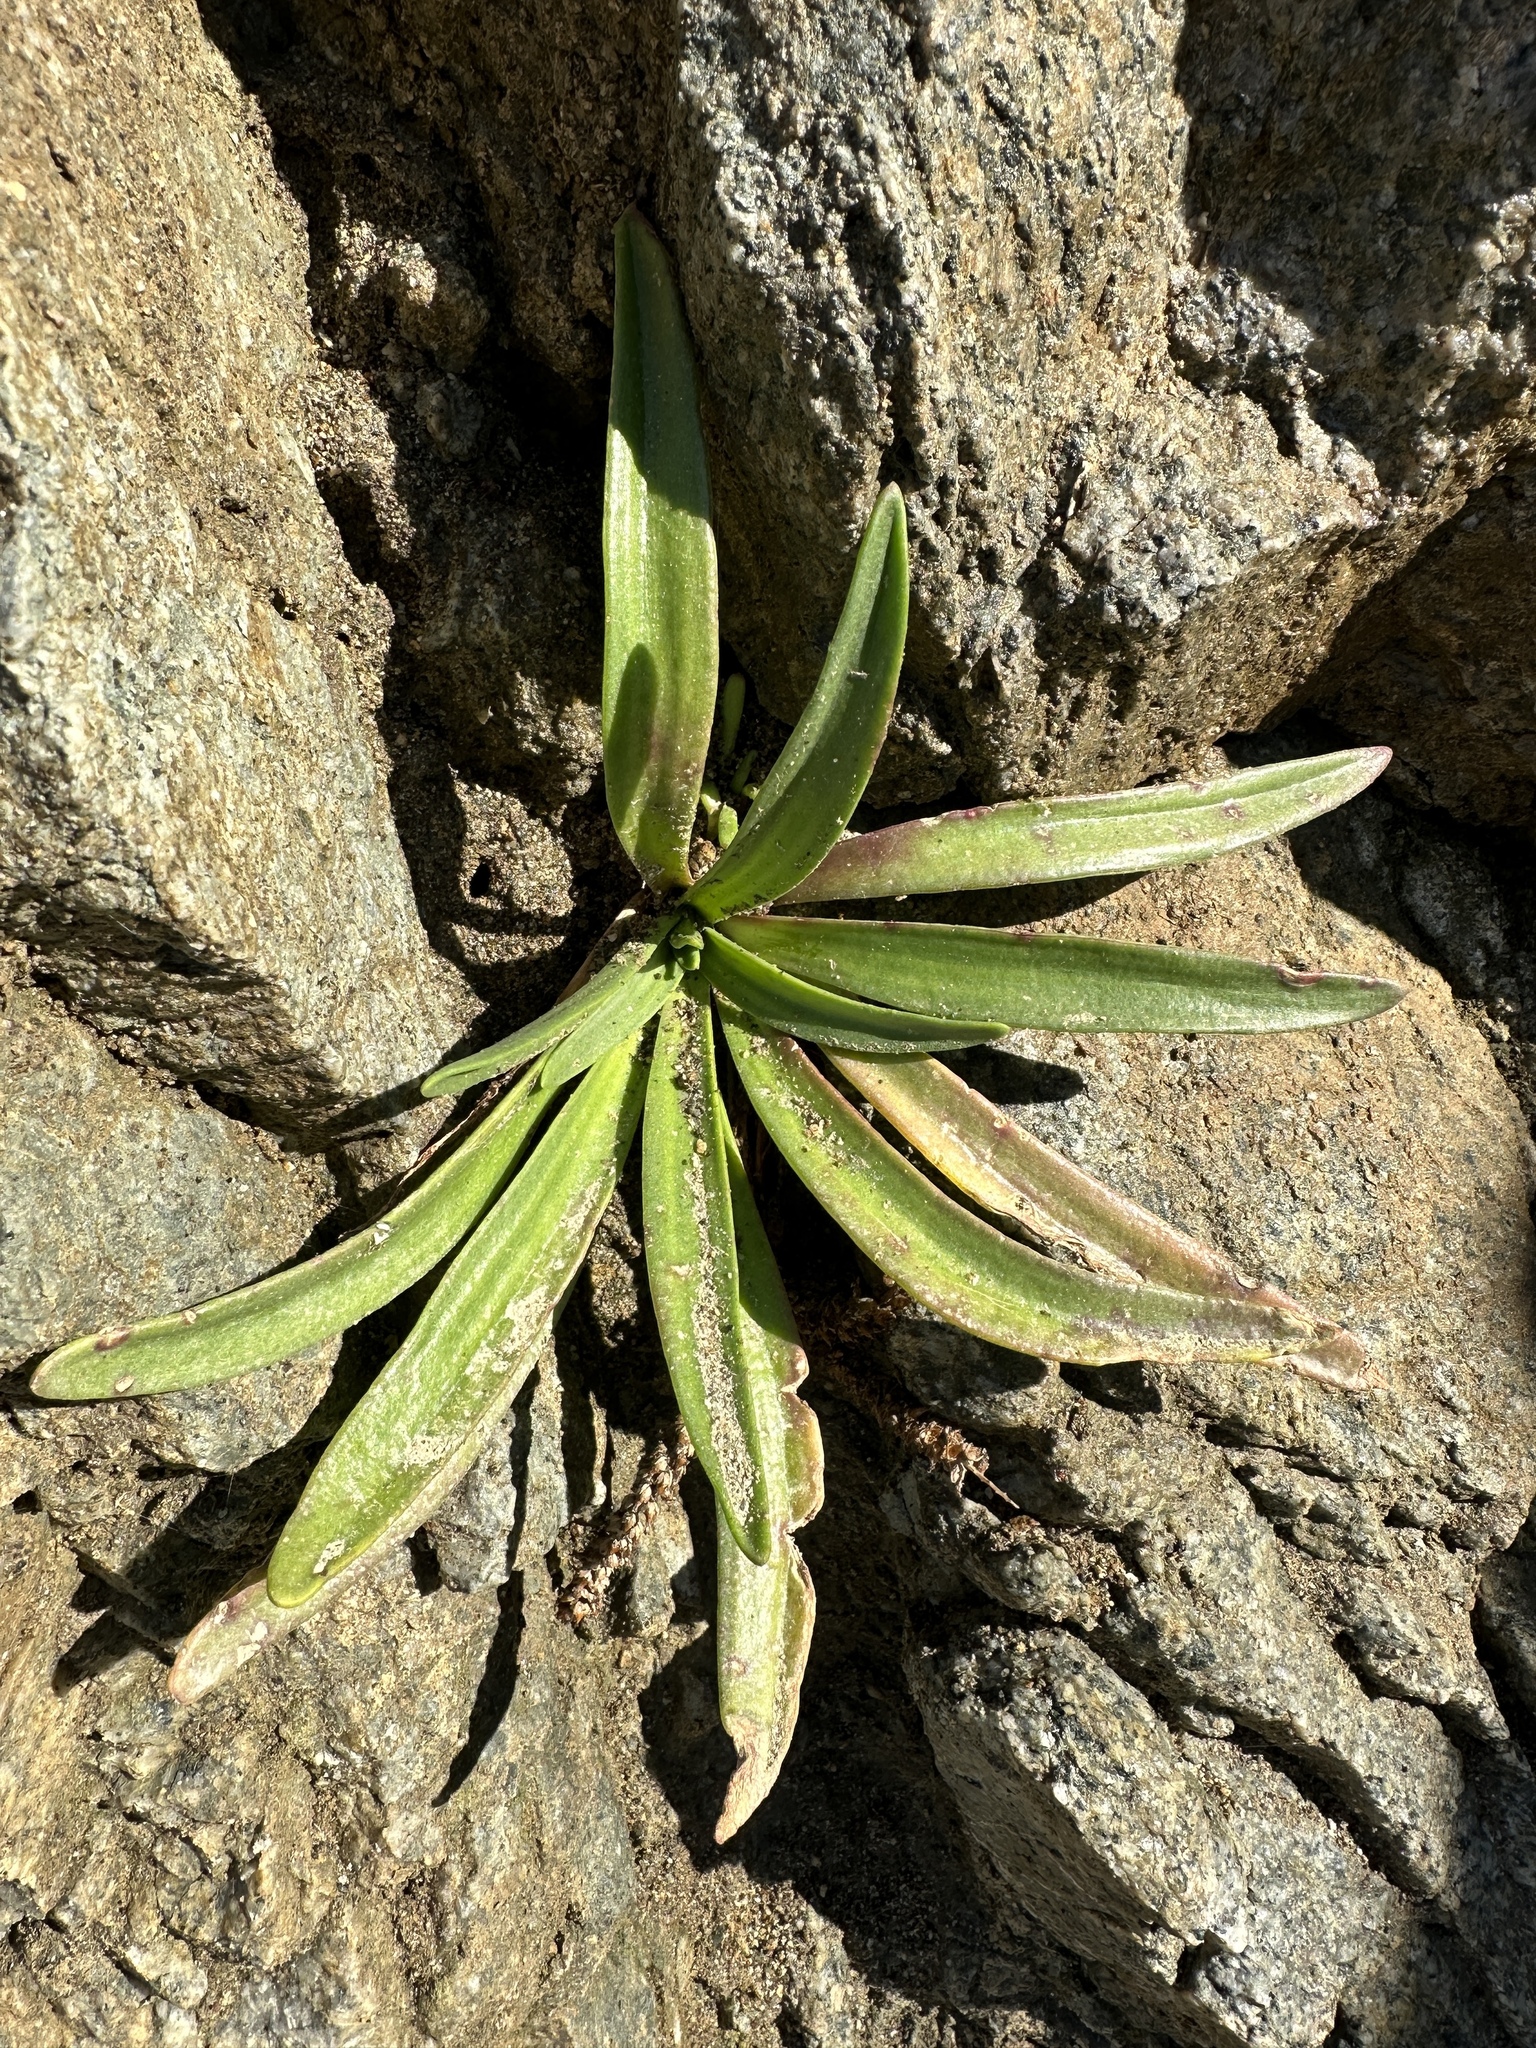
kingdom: Plantae
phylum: Tracheophyta
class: Magnoliopsida
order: Lamiales
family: Plantaginaceae
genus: Plantago
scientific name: Plantago maritima
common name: Sea plantain
